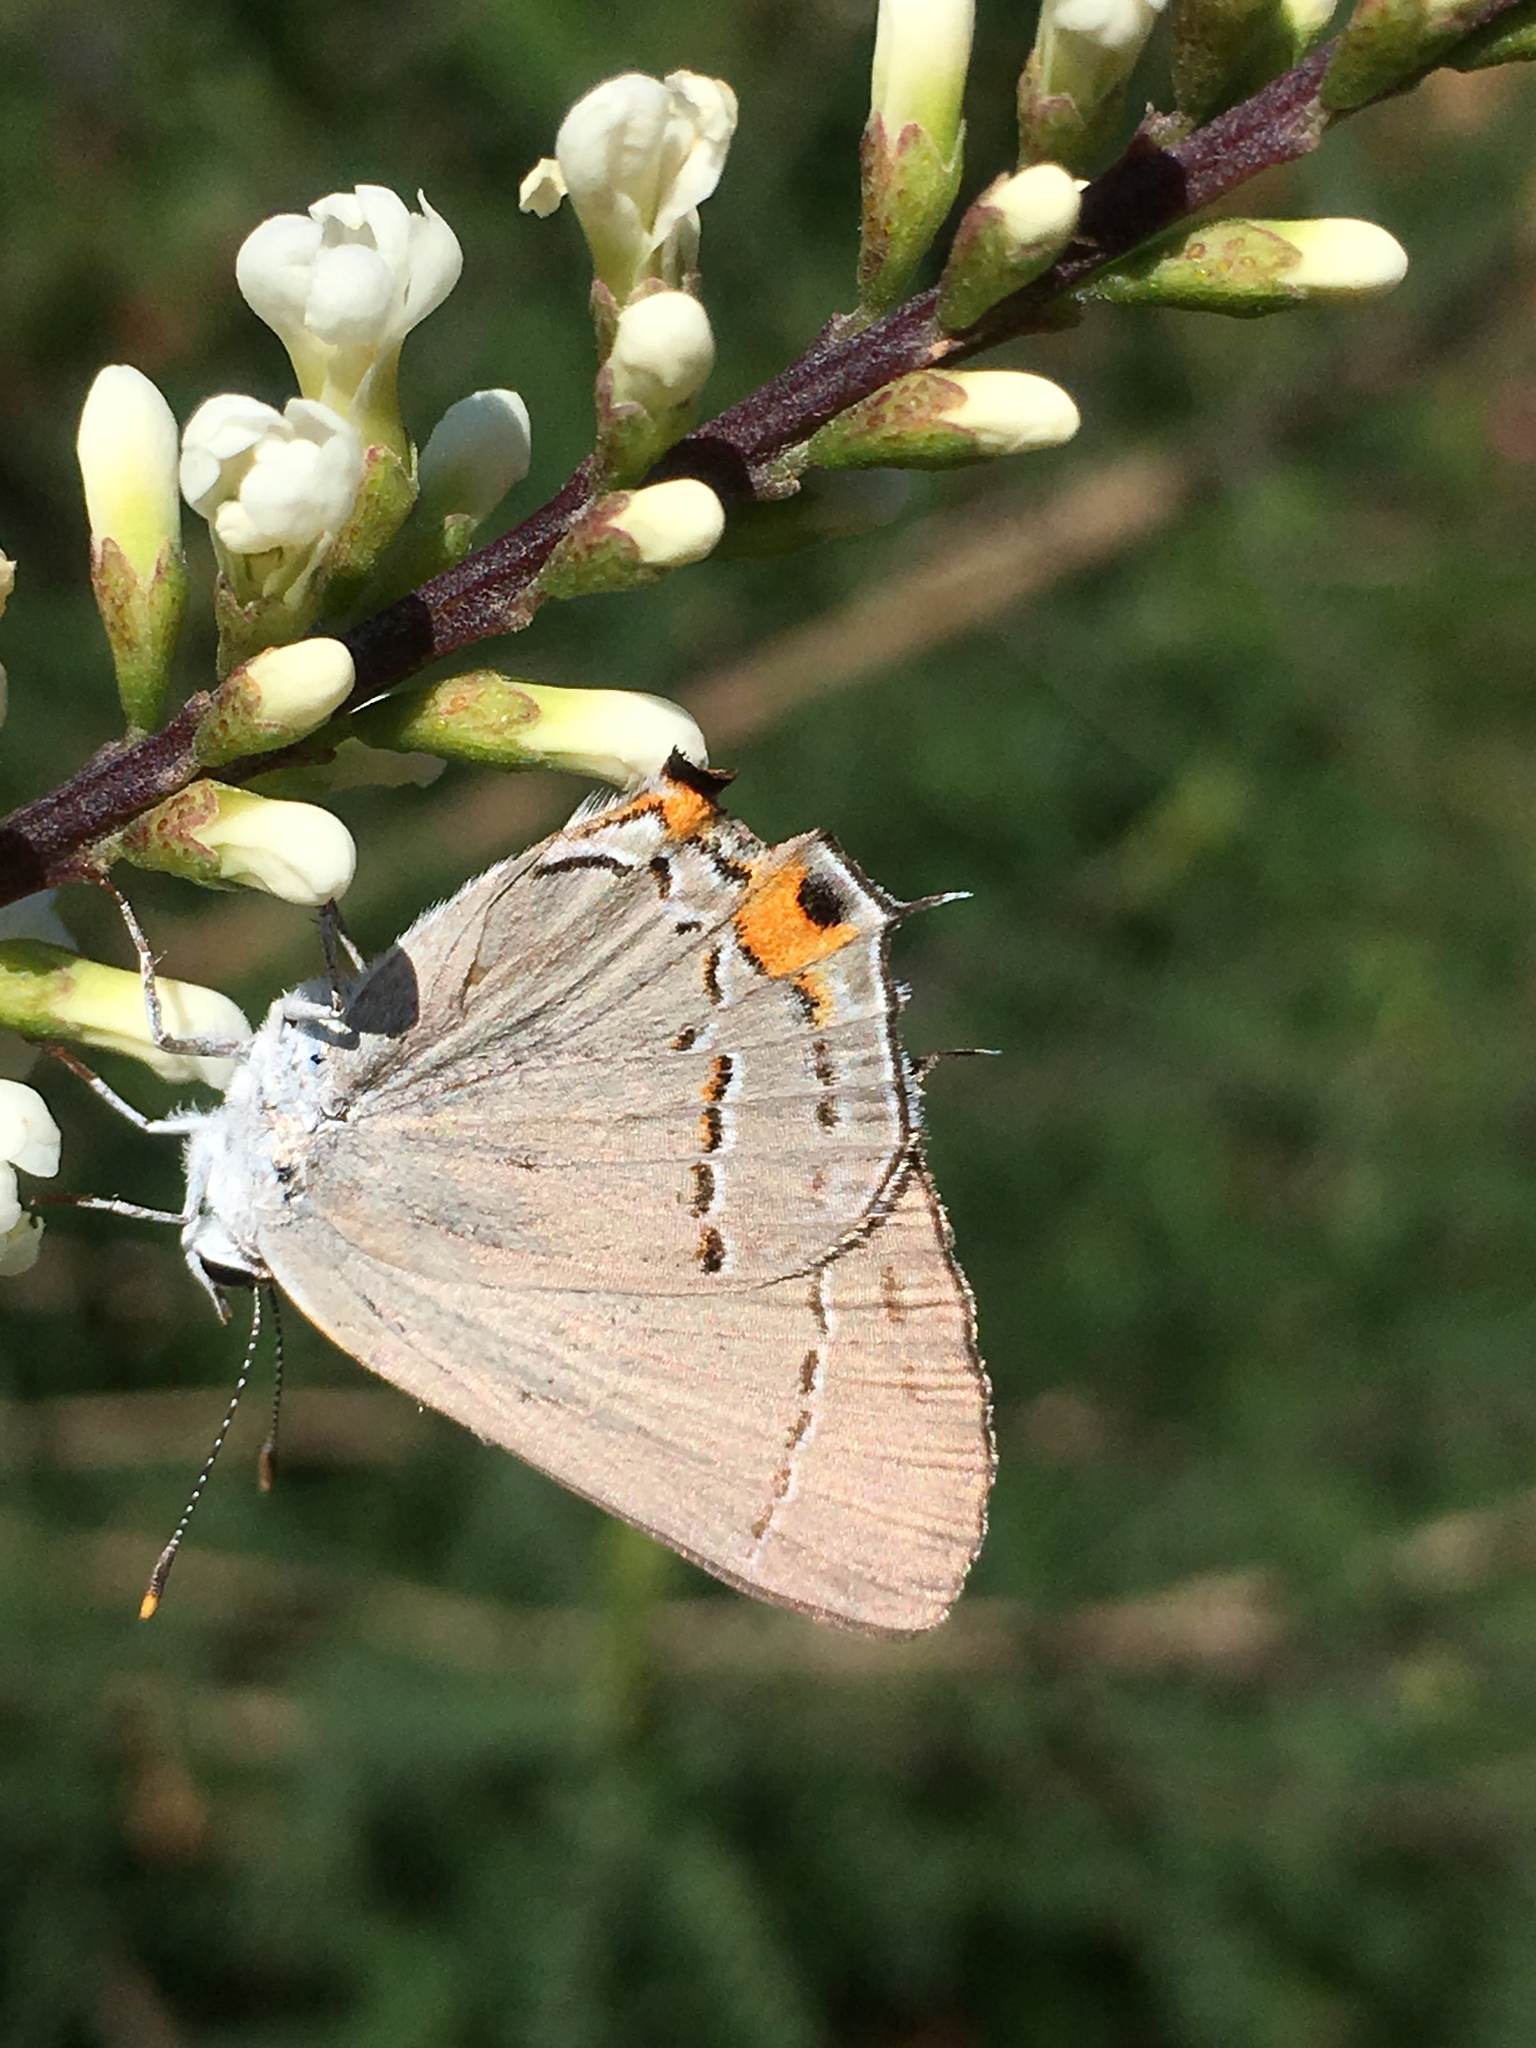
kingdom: Animalia
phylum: Arthropoda
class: Insecta
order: Lepidoptera
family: Lycaenidae
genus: Strymon
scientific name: Strymon melinus
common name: Gray hairstreak
